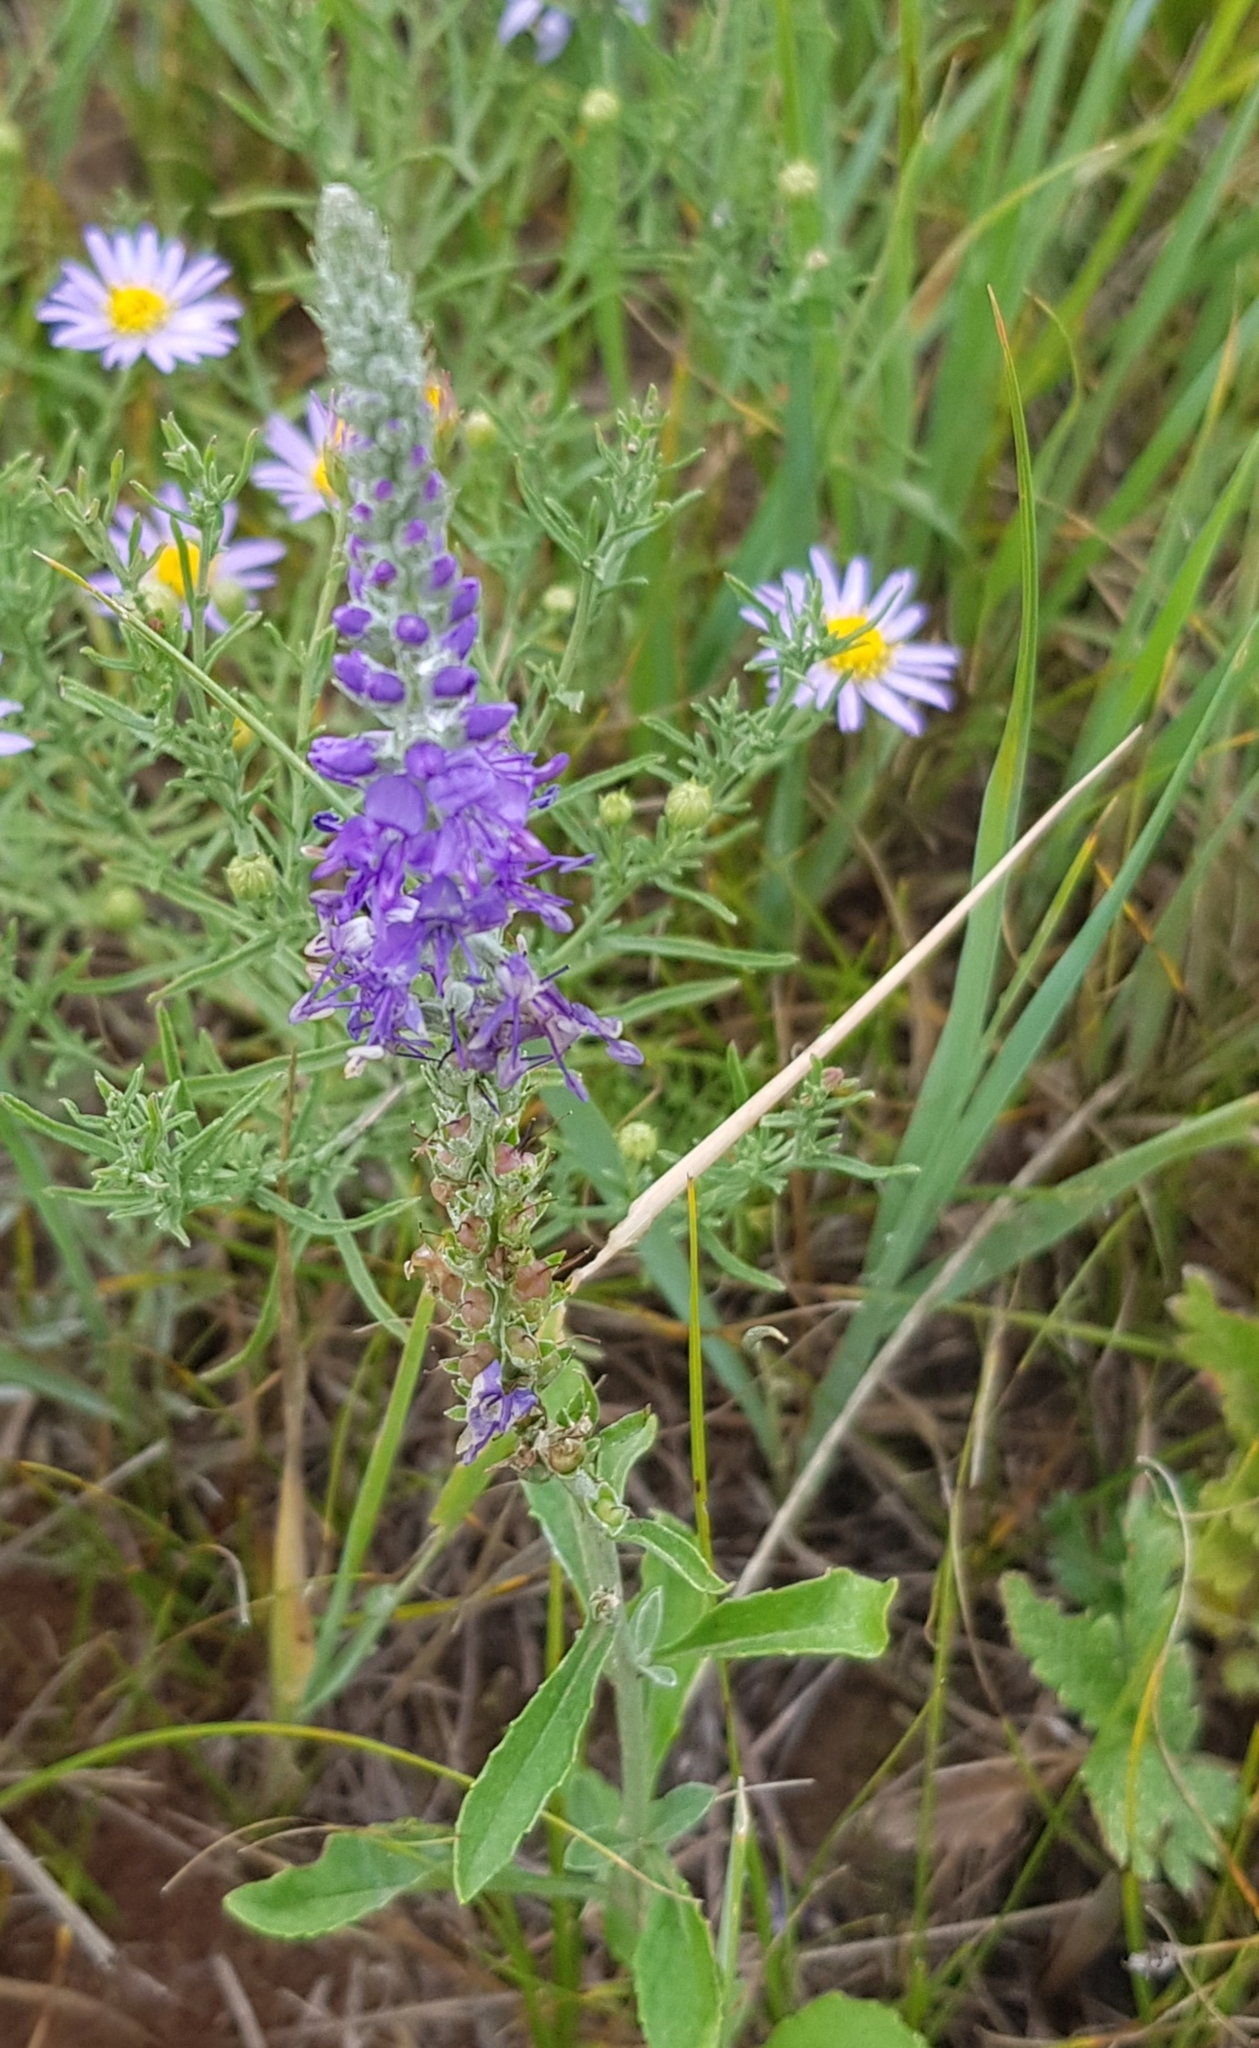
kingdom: Plantae
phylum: Tracheophyta
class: Magnoliopsida
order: Lamiales
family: Plantaginaceae
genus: Veronica
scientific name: Veronica incana
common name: Silver speedwell
